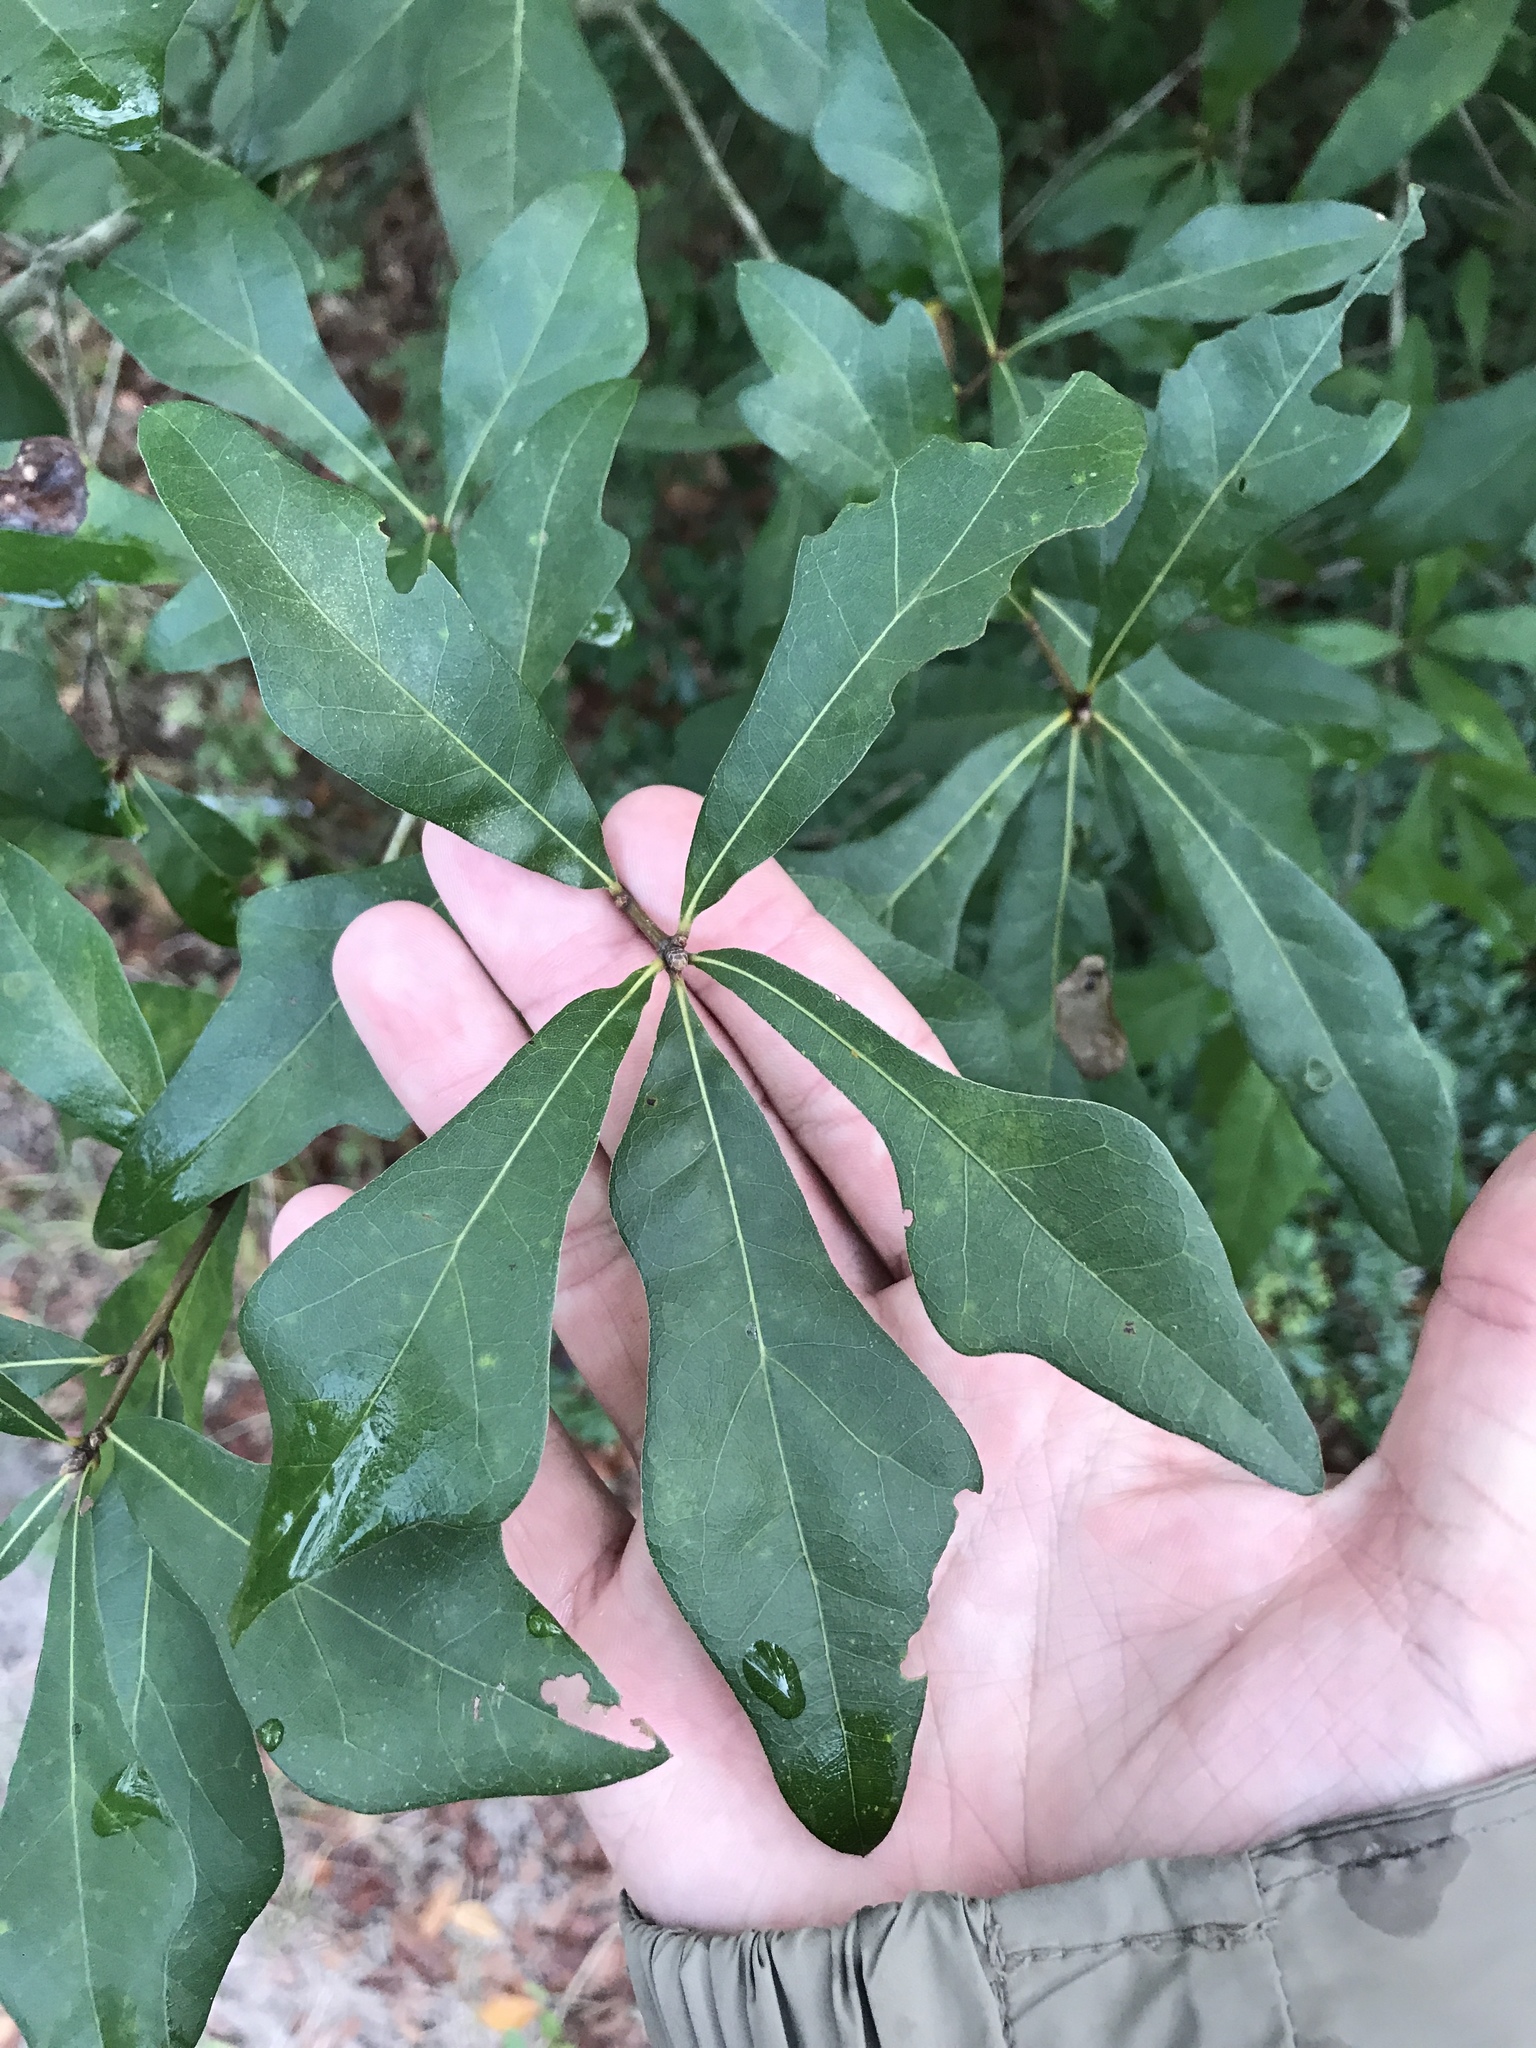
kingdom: Plantae
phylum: Tracheophyta
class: Magnoliopsida
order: Fagales
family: Fagaceae
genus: Quercus
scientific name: Quercus nigra
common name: Water oak
